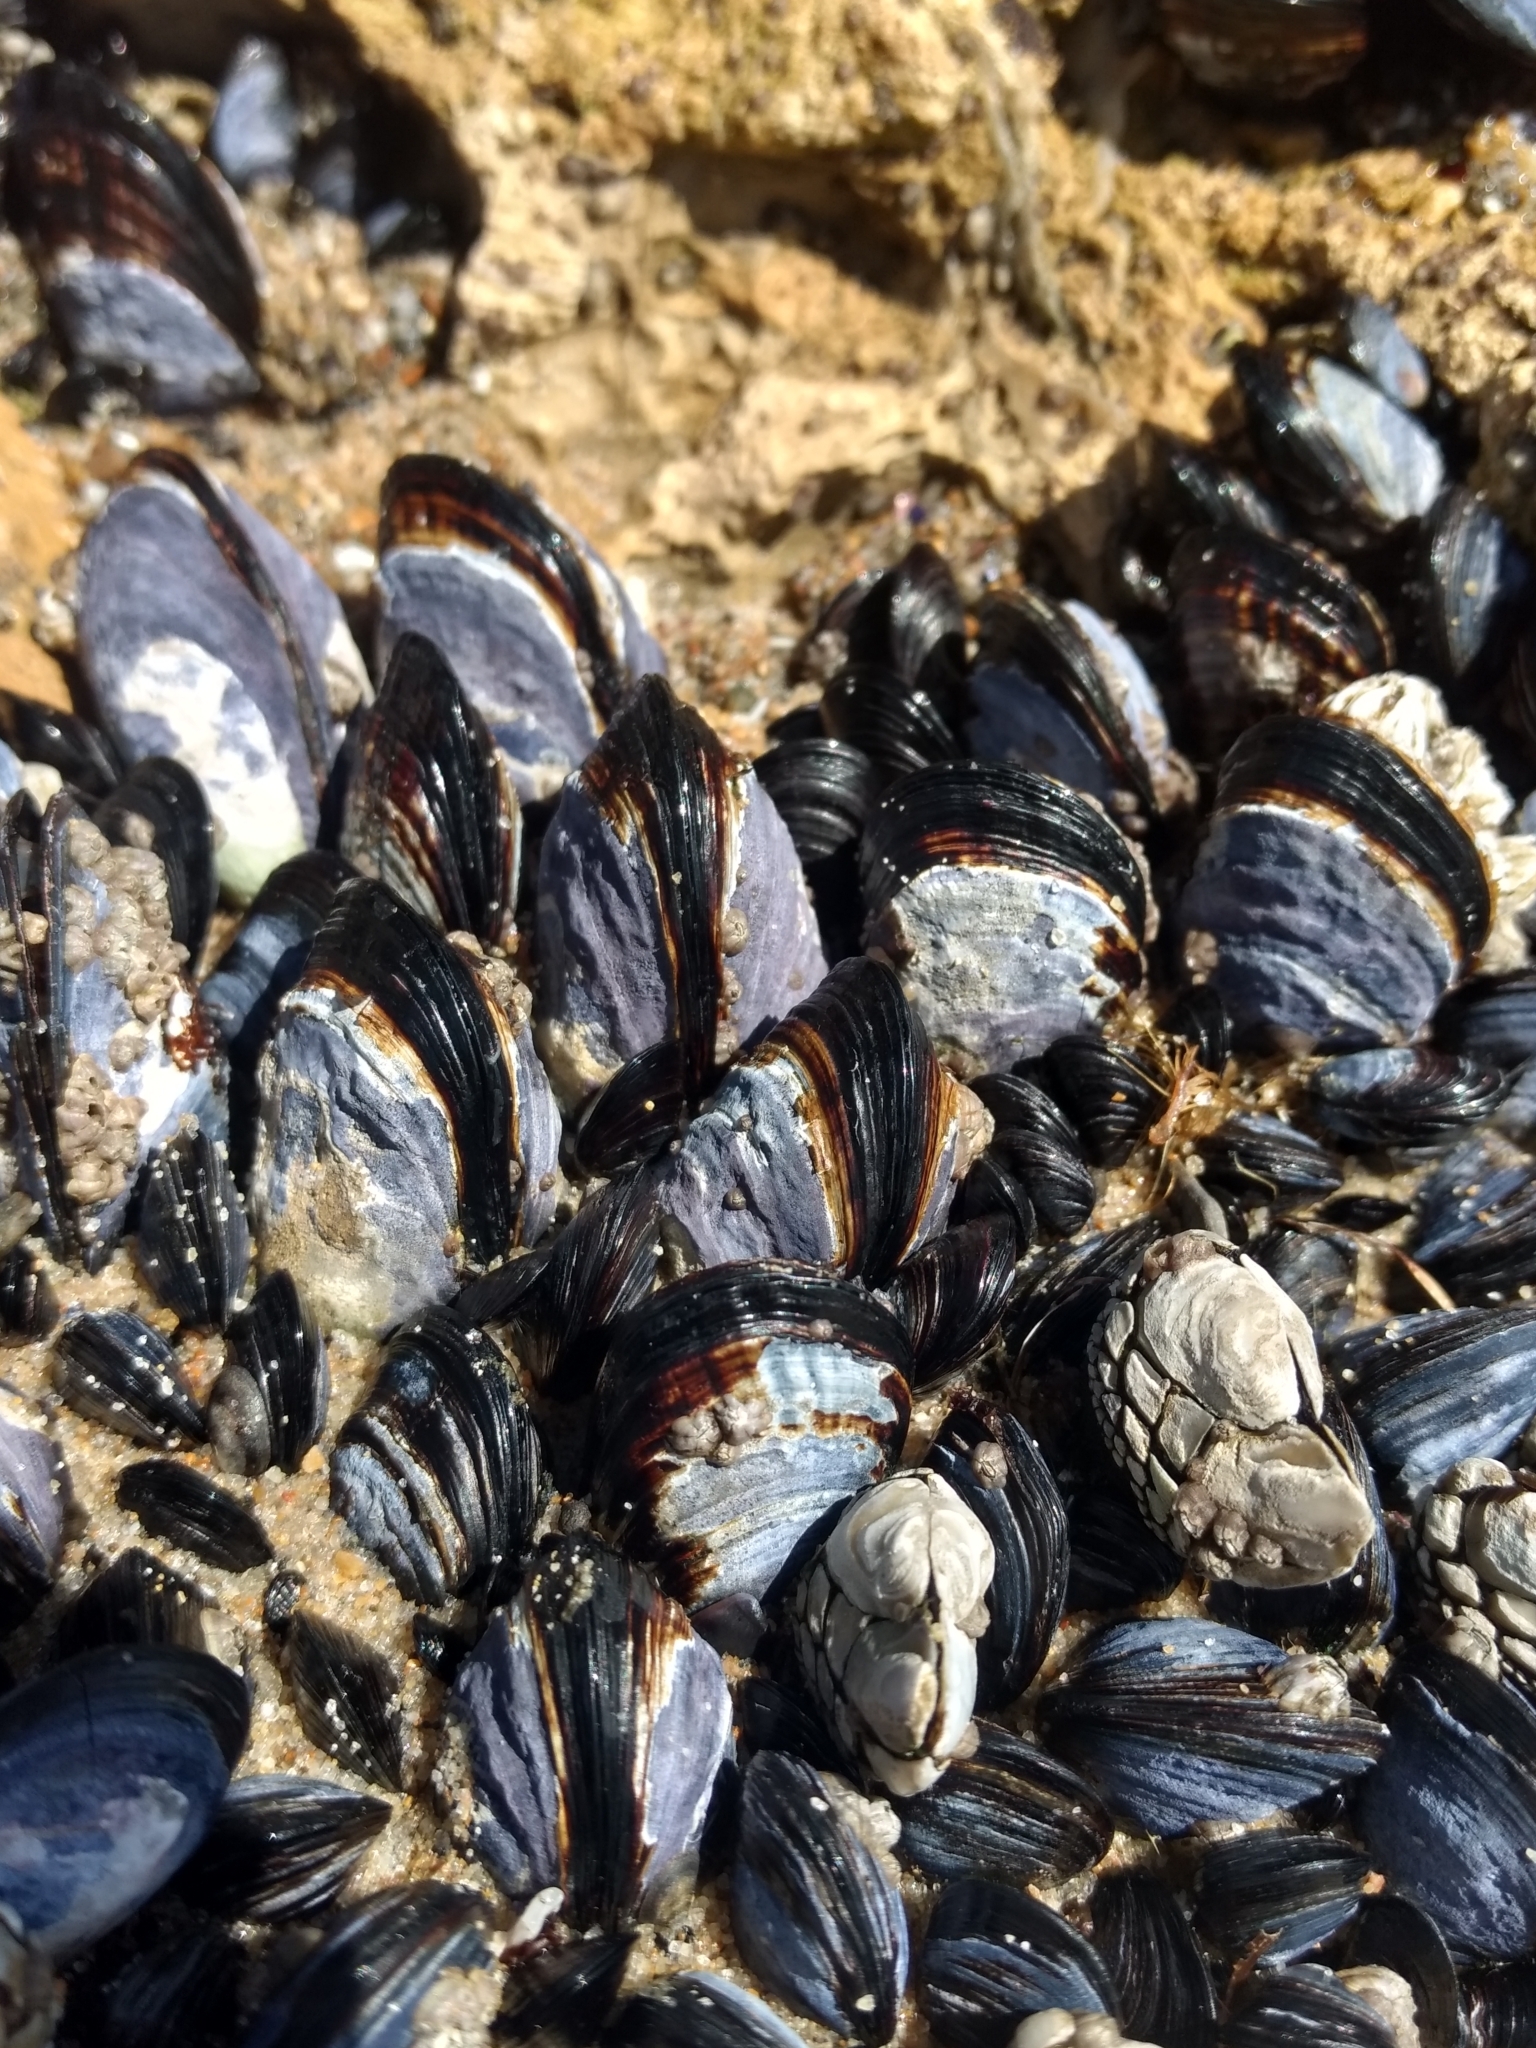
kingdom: Animalia
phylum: Mollusca
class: Bivalvia
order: Mytilida
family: Mytilidae
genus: Mytilus
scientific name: Mytilus californianus
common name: California mussel
